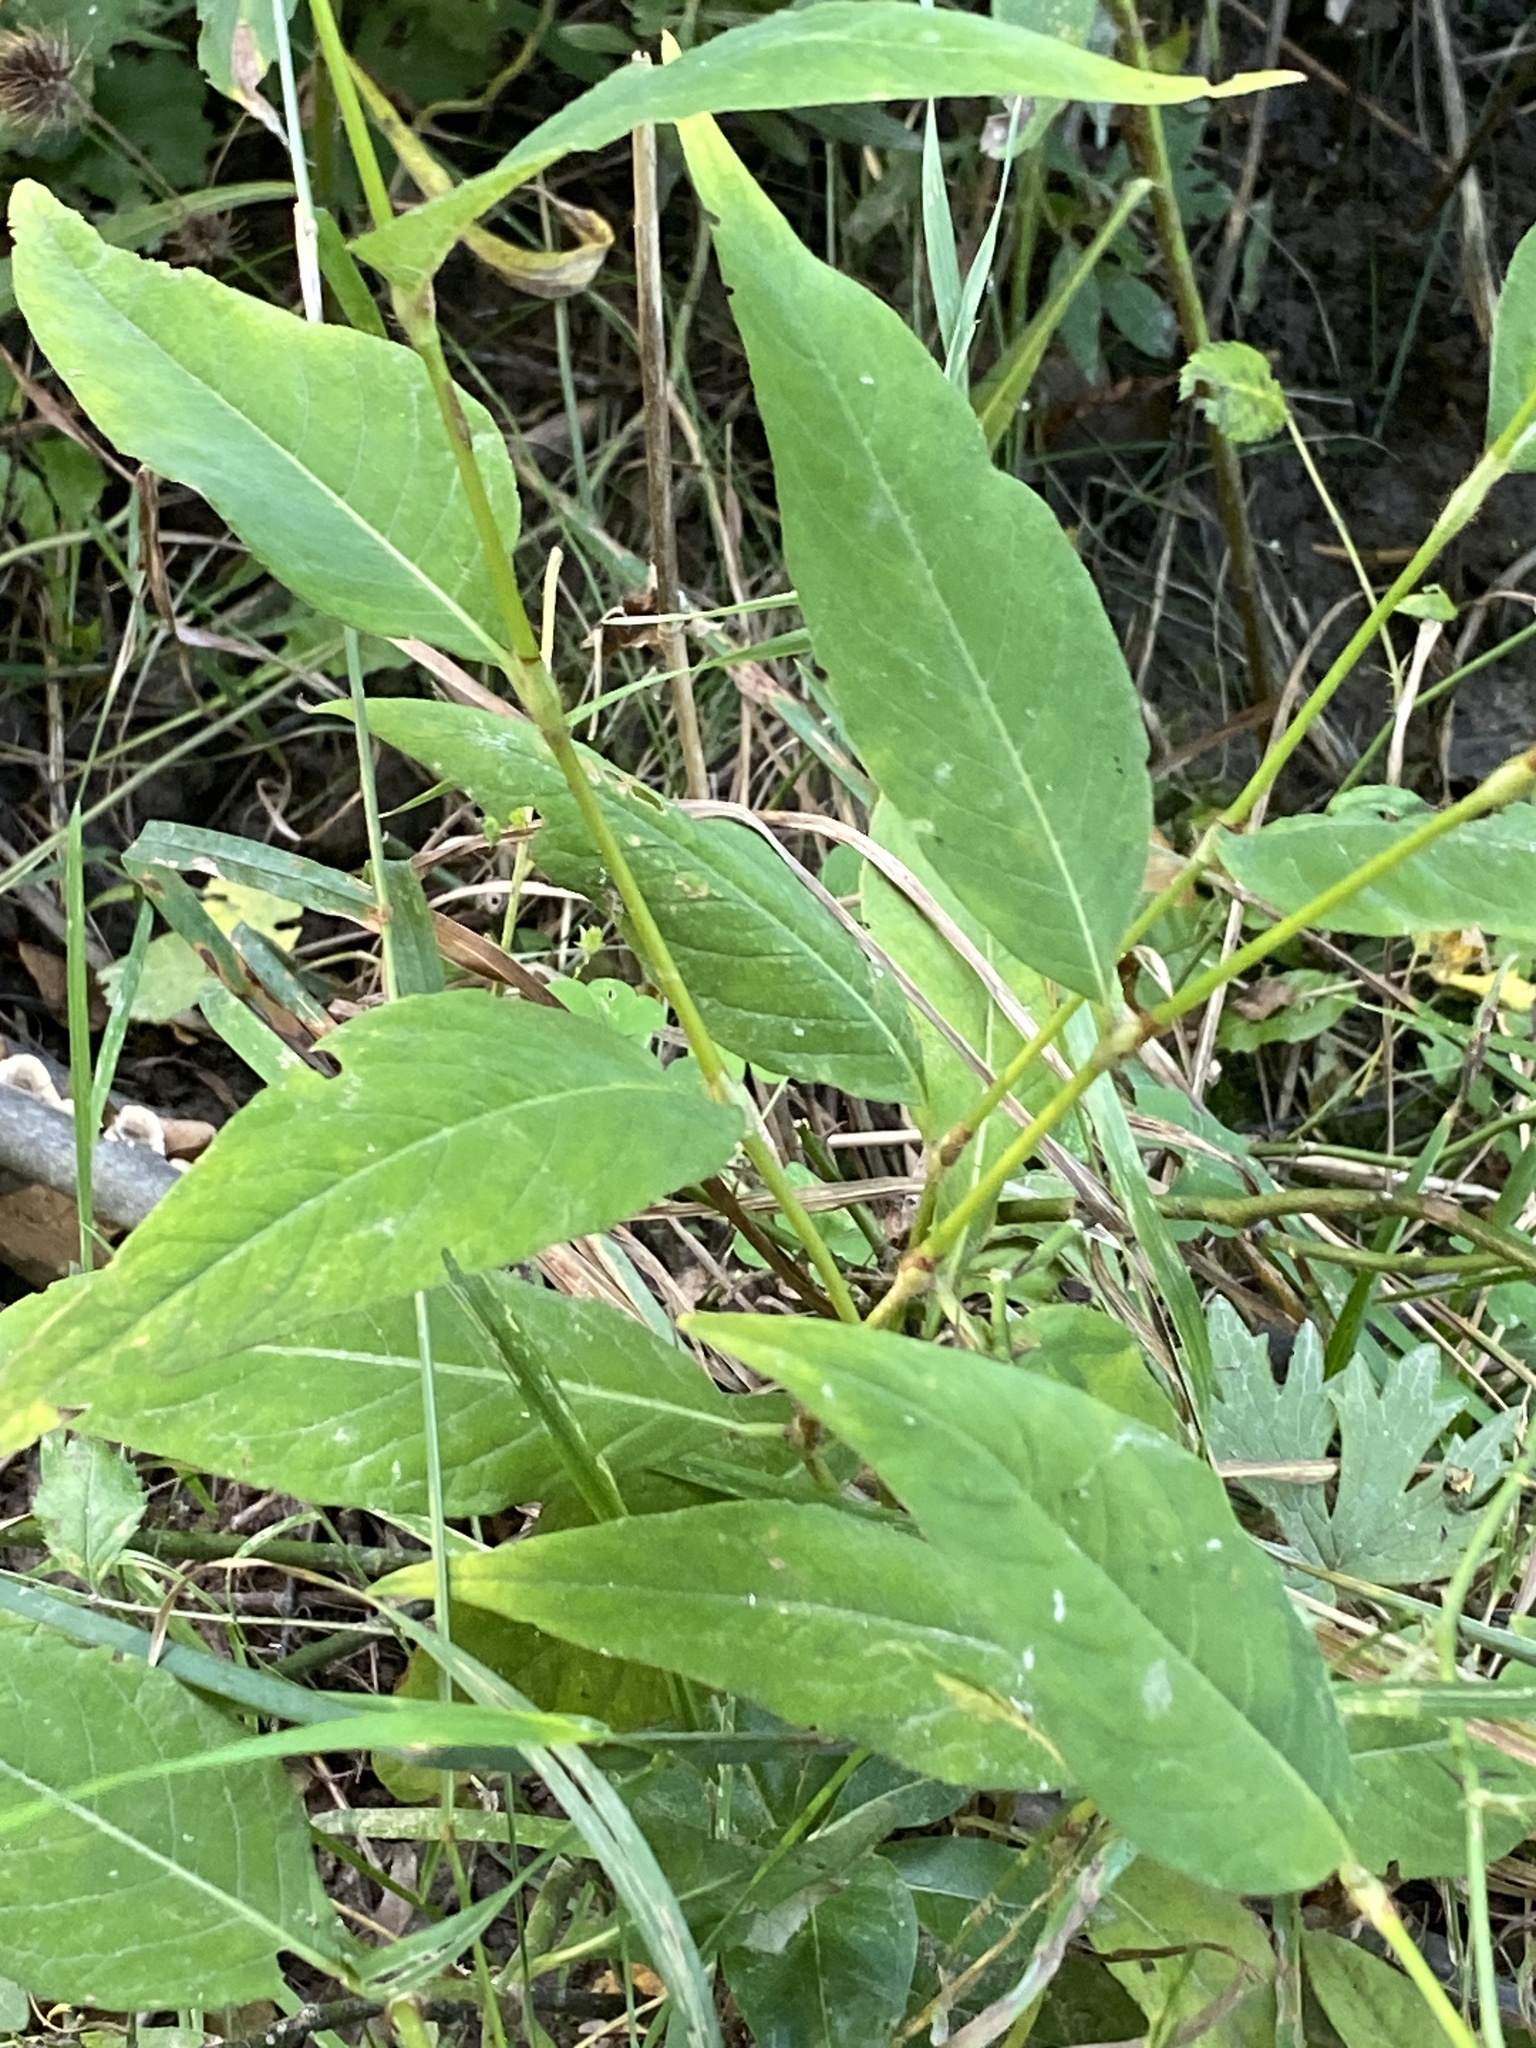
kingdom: Plantae
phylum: Tracheophyta
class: Magnoliopsida
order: Caryophyllales
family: Polygonaceae
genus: Persicaria
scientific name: Persicaria virginiana
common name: Jumpseed
